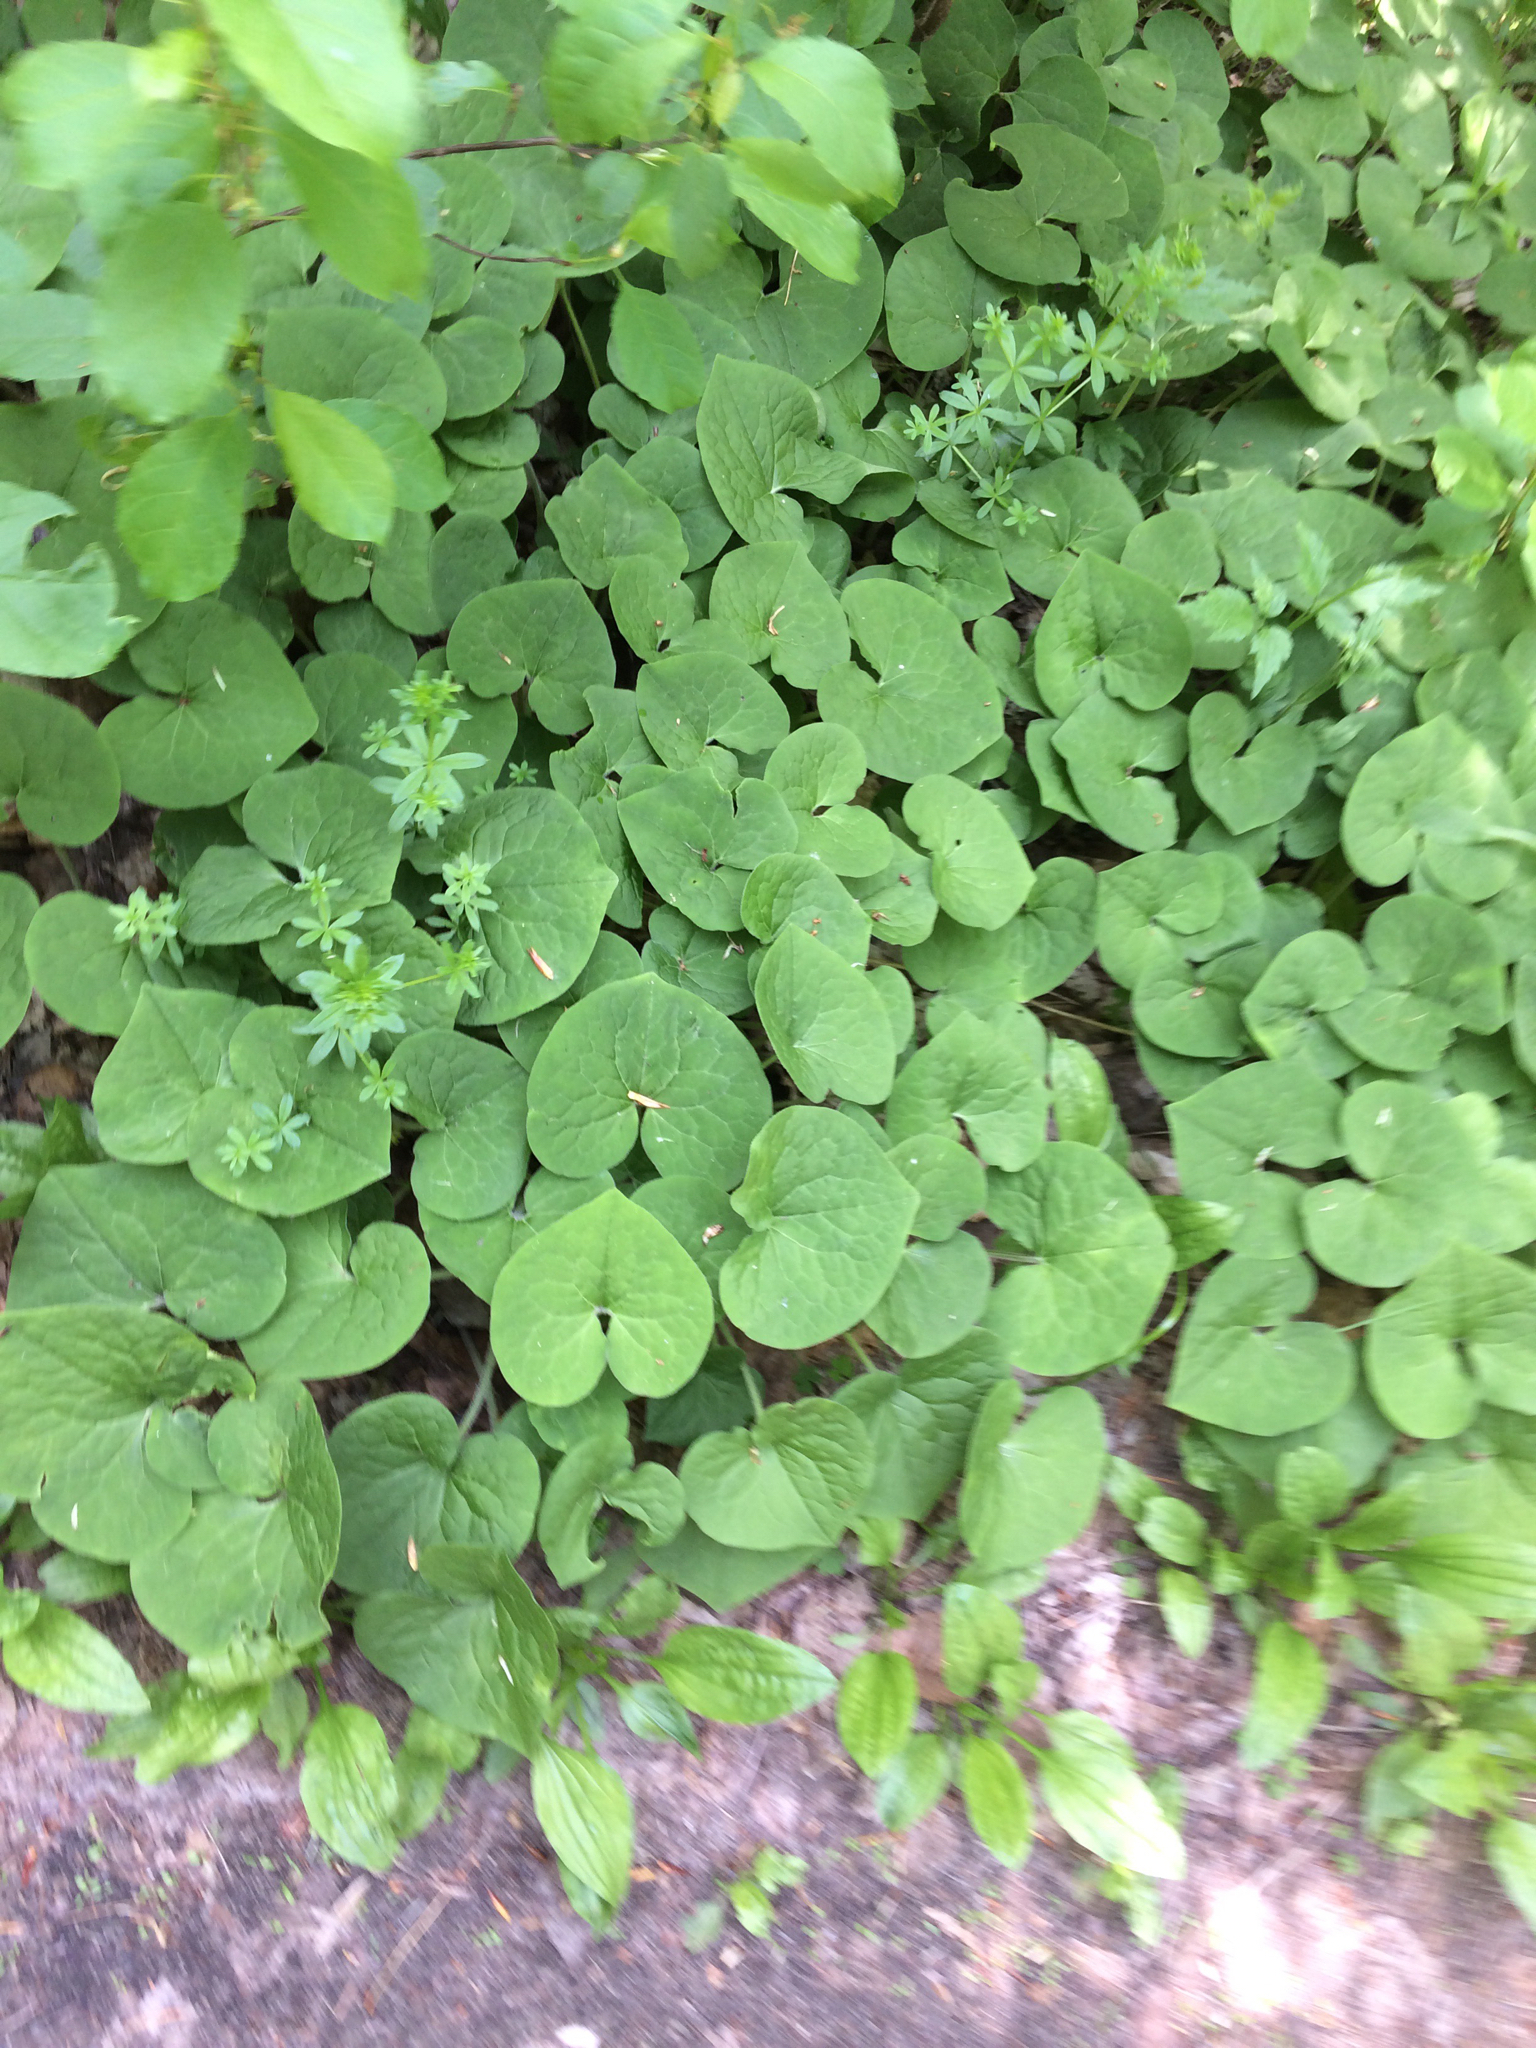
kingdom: Plantae
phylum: Tracheophyta
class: Magnoliopsida
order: Piperales
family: Aristolochiaceae
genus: Asarum
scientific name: Asarum canadense
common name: Wild ginger
